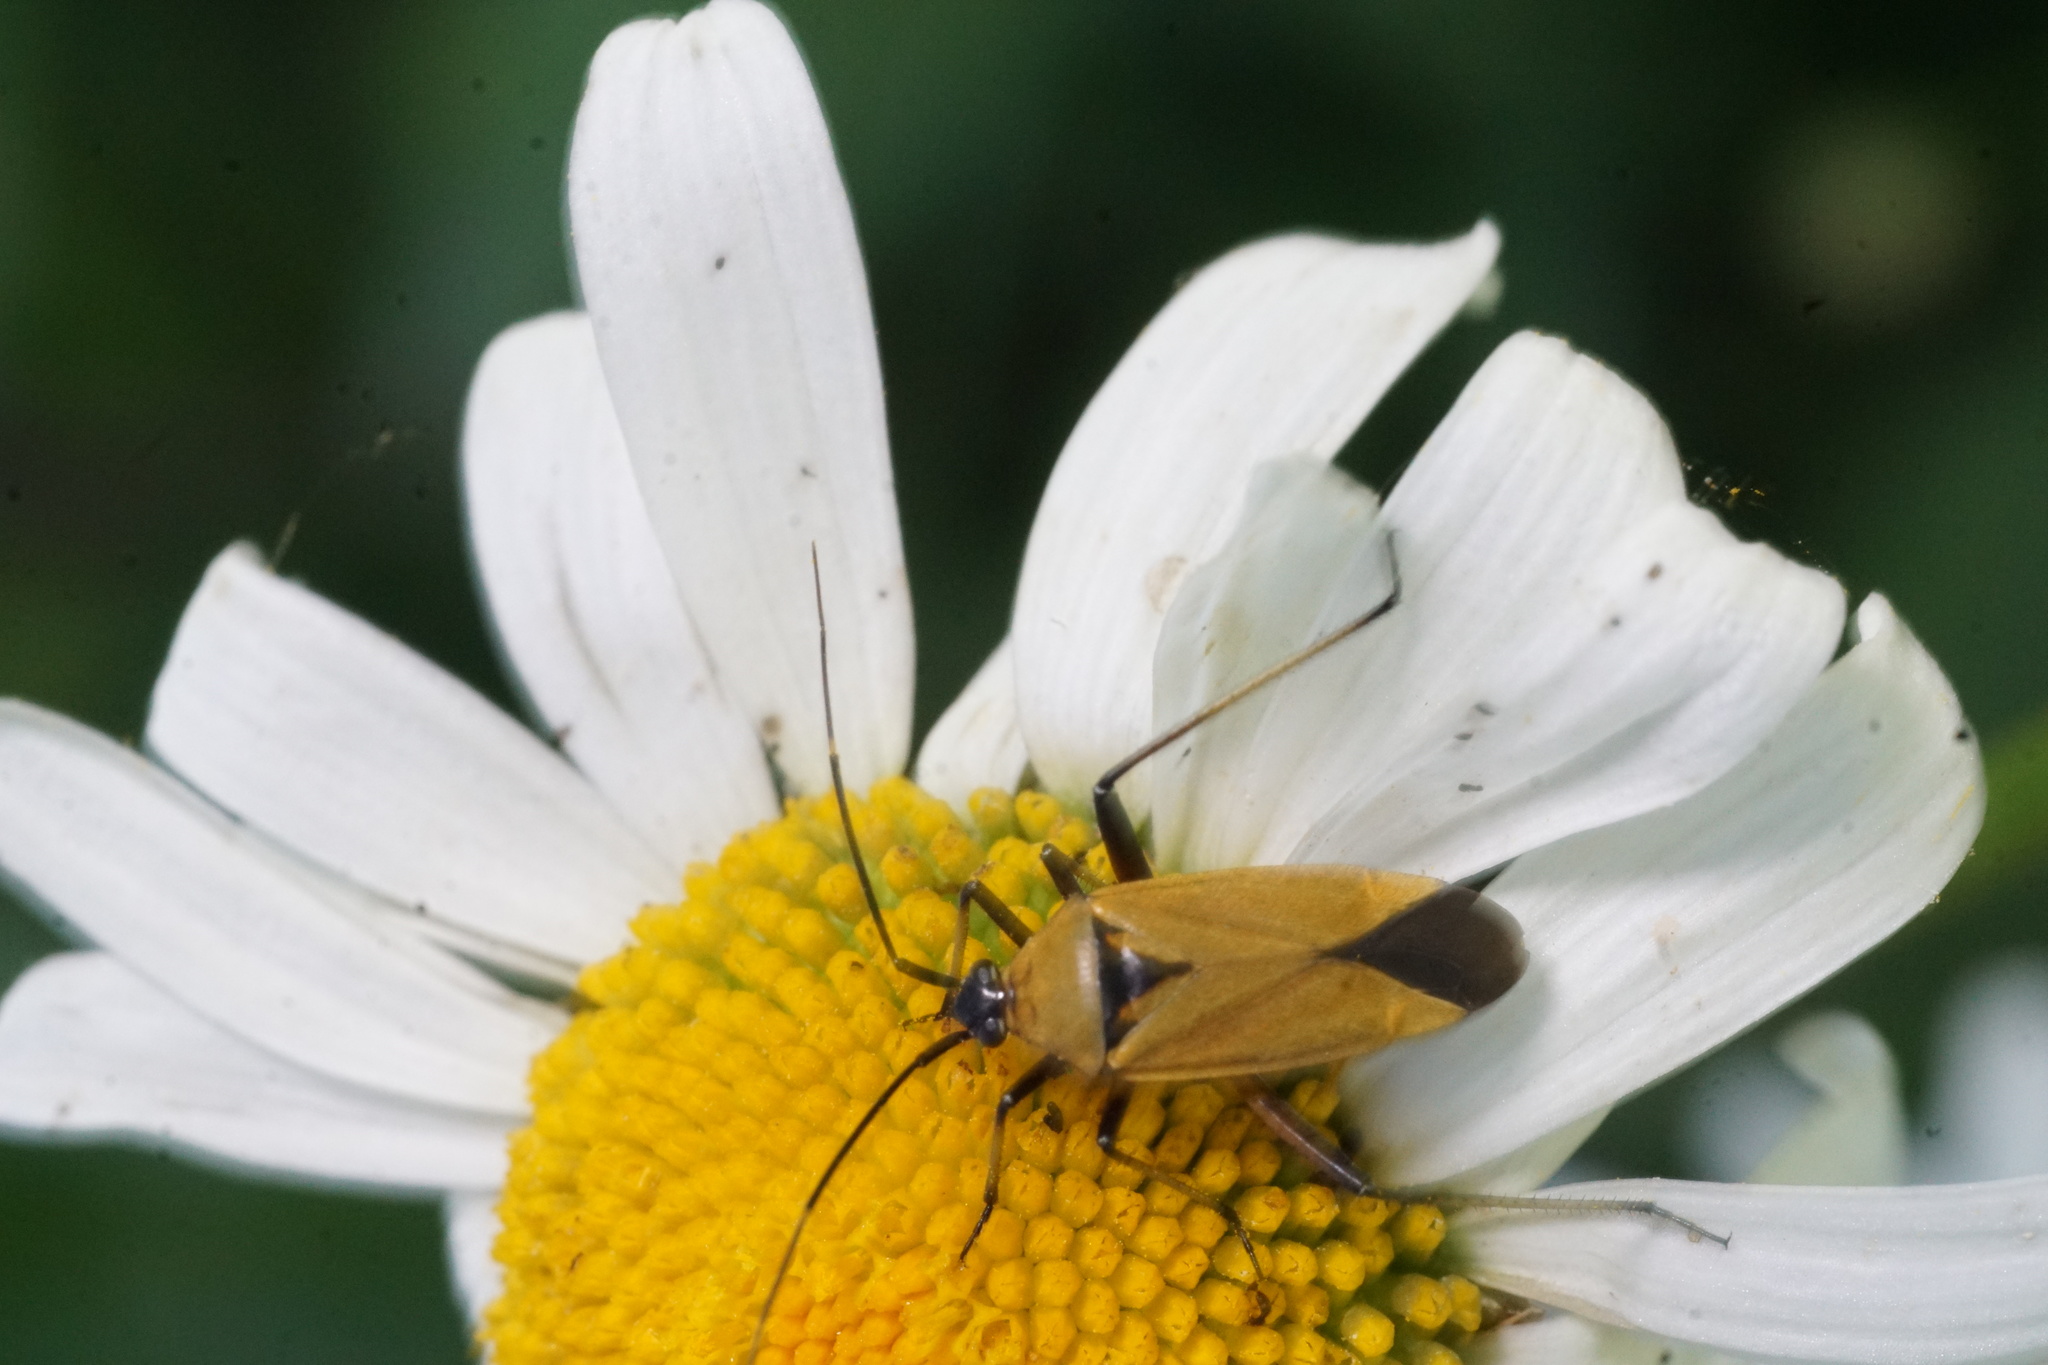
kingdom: Animalia
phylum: Arthropoda
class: Insecta
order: Hemiptera
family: Miridae
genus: Calocoris
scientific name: Calocoris nemoralis
